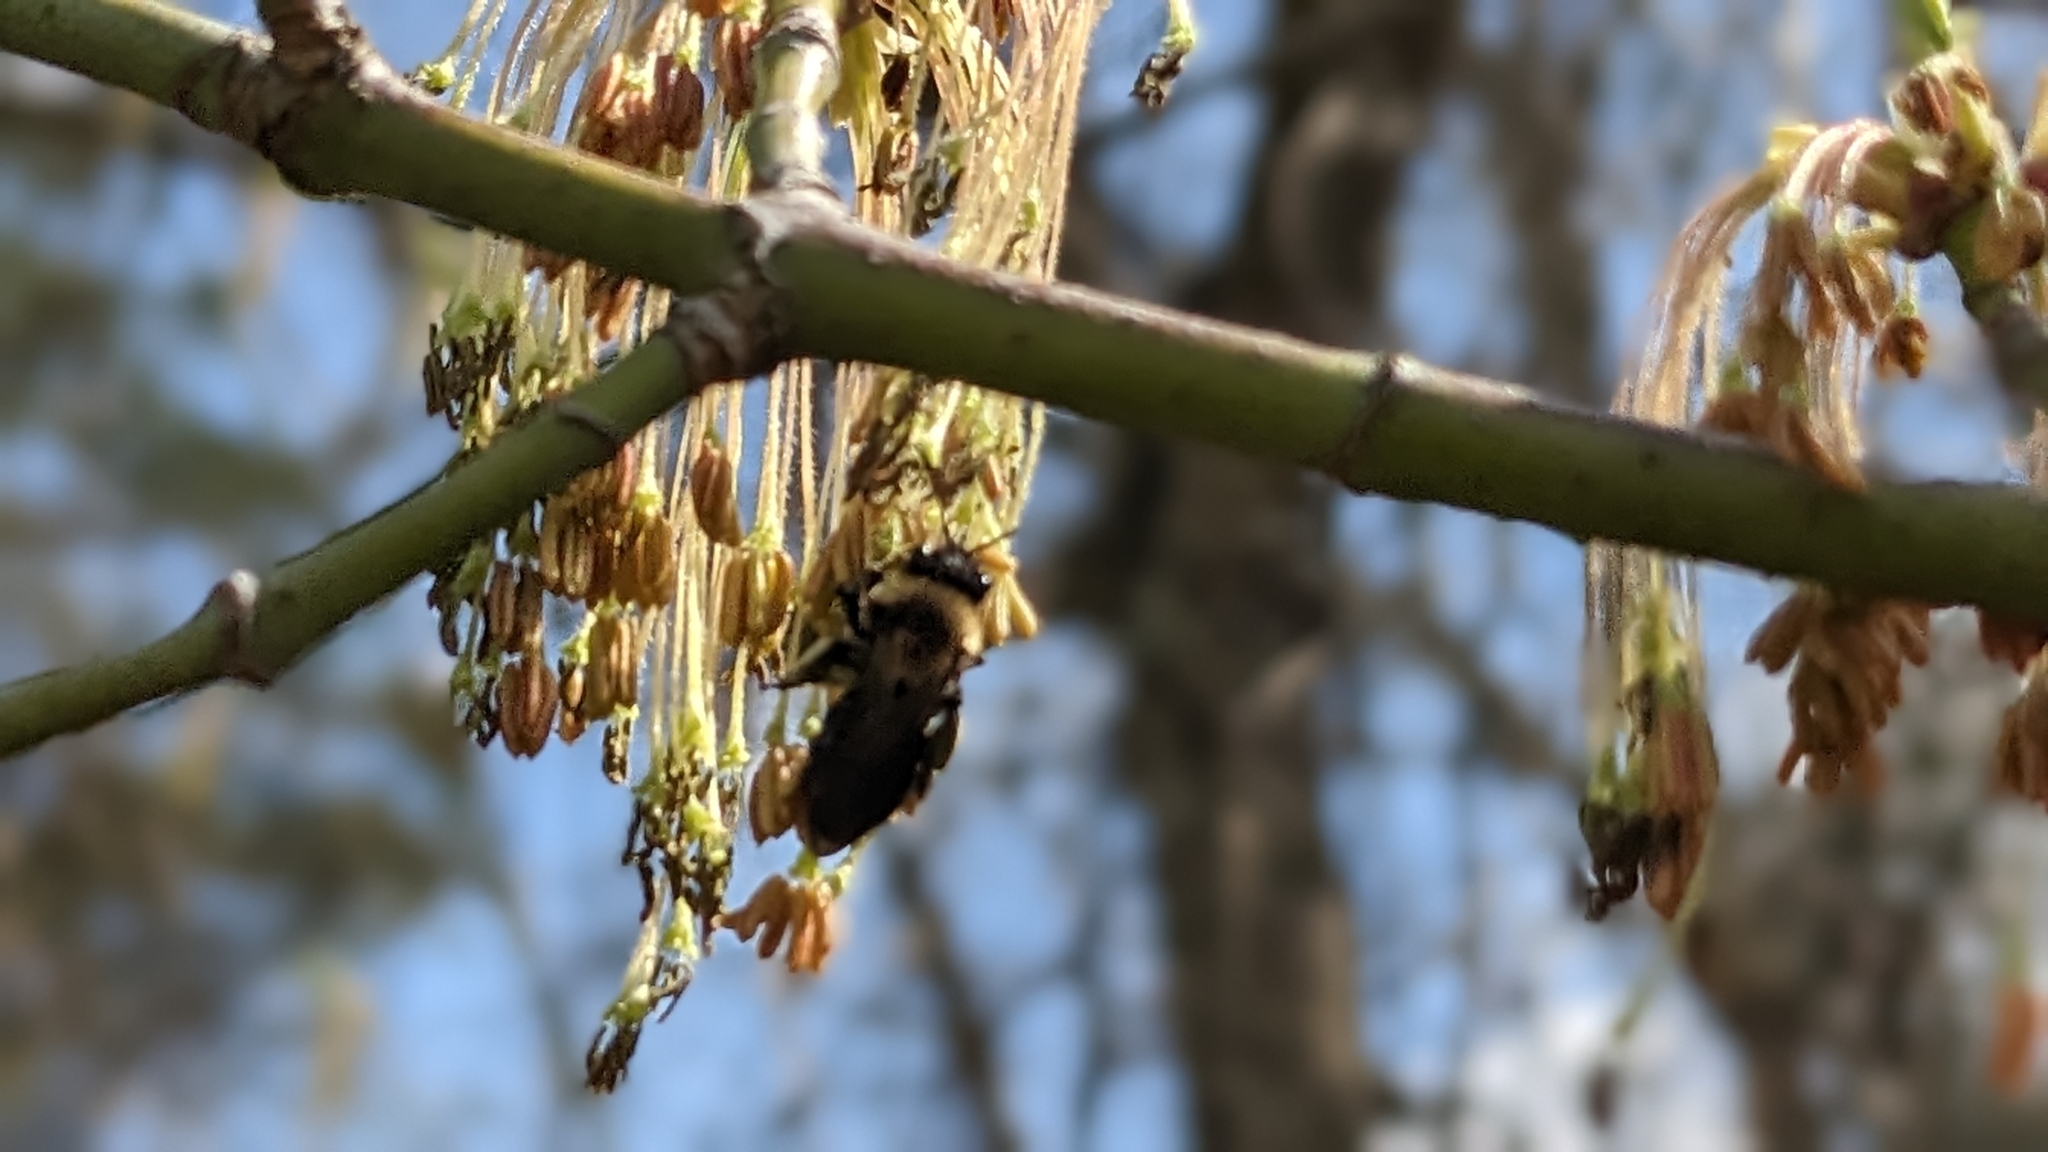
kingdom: Plantae
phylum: Tracheophyta
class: Magnoliopsida
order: Sapindales
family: Sapindaceae
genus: Acer
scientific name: Acer negundo
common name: Ashleaf maple
